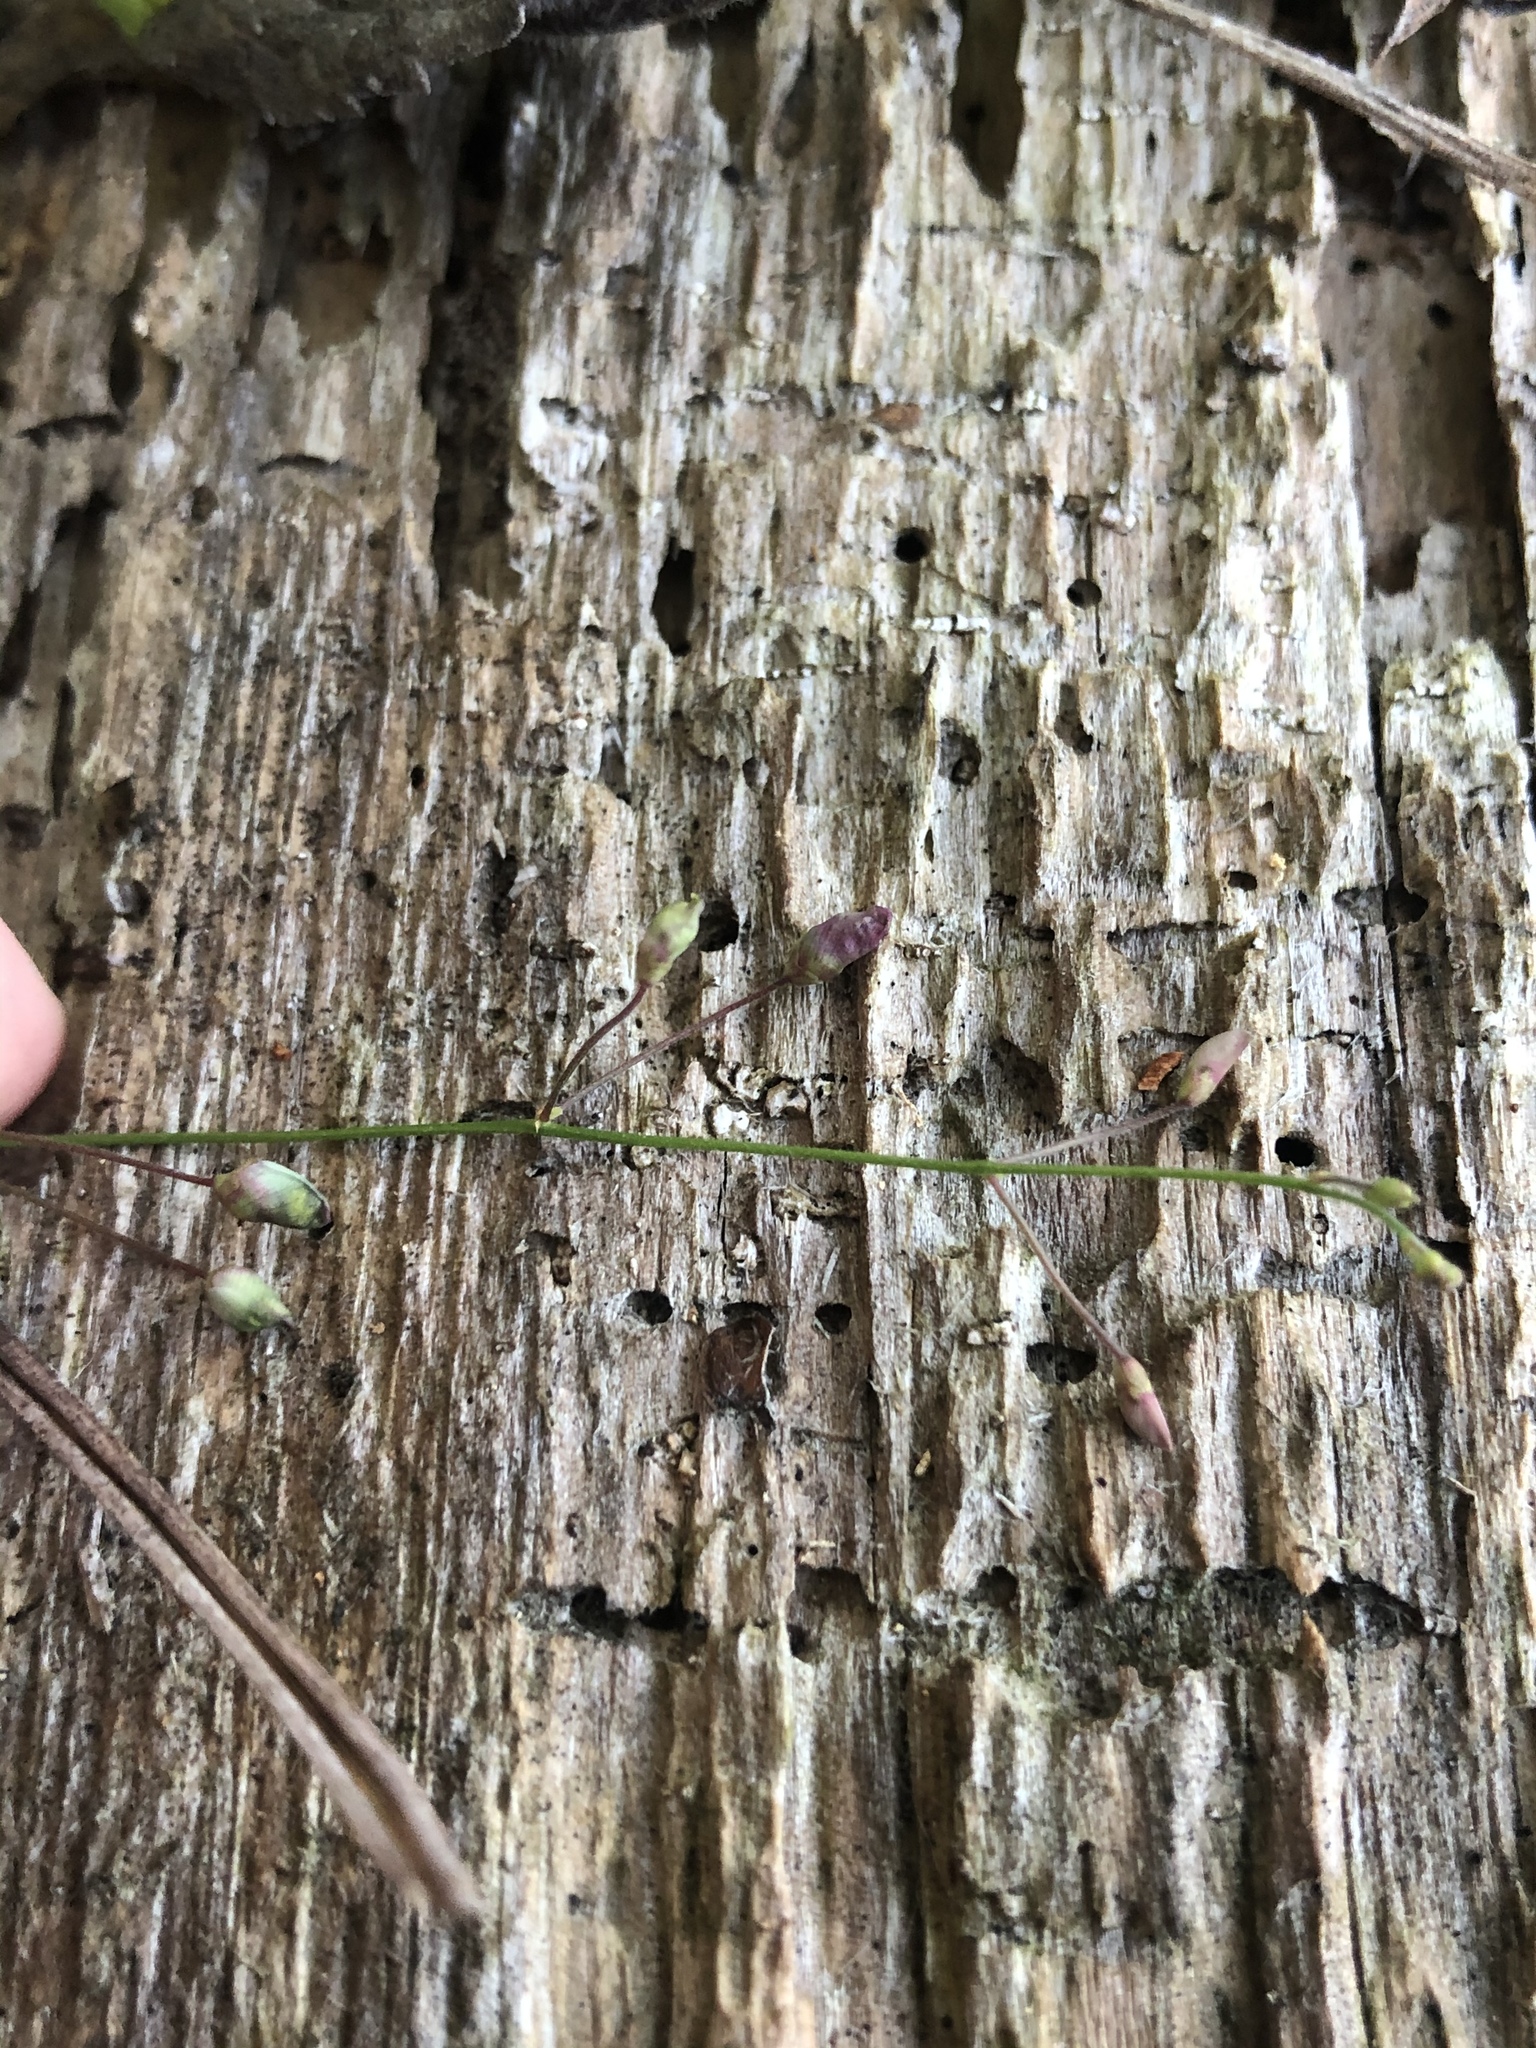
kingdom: Plantae
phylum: Tracheophyta
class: Magnoliopsida
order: Fabales
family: Fabaceae
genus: Desmodium
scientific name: Desmodium strictum
